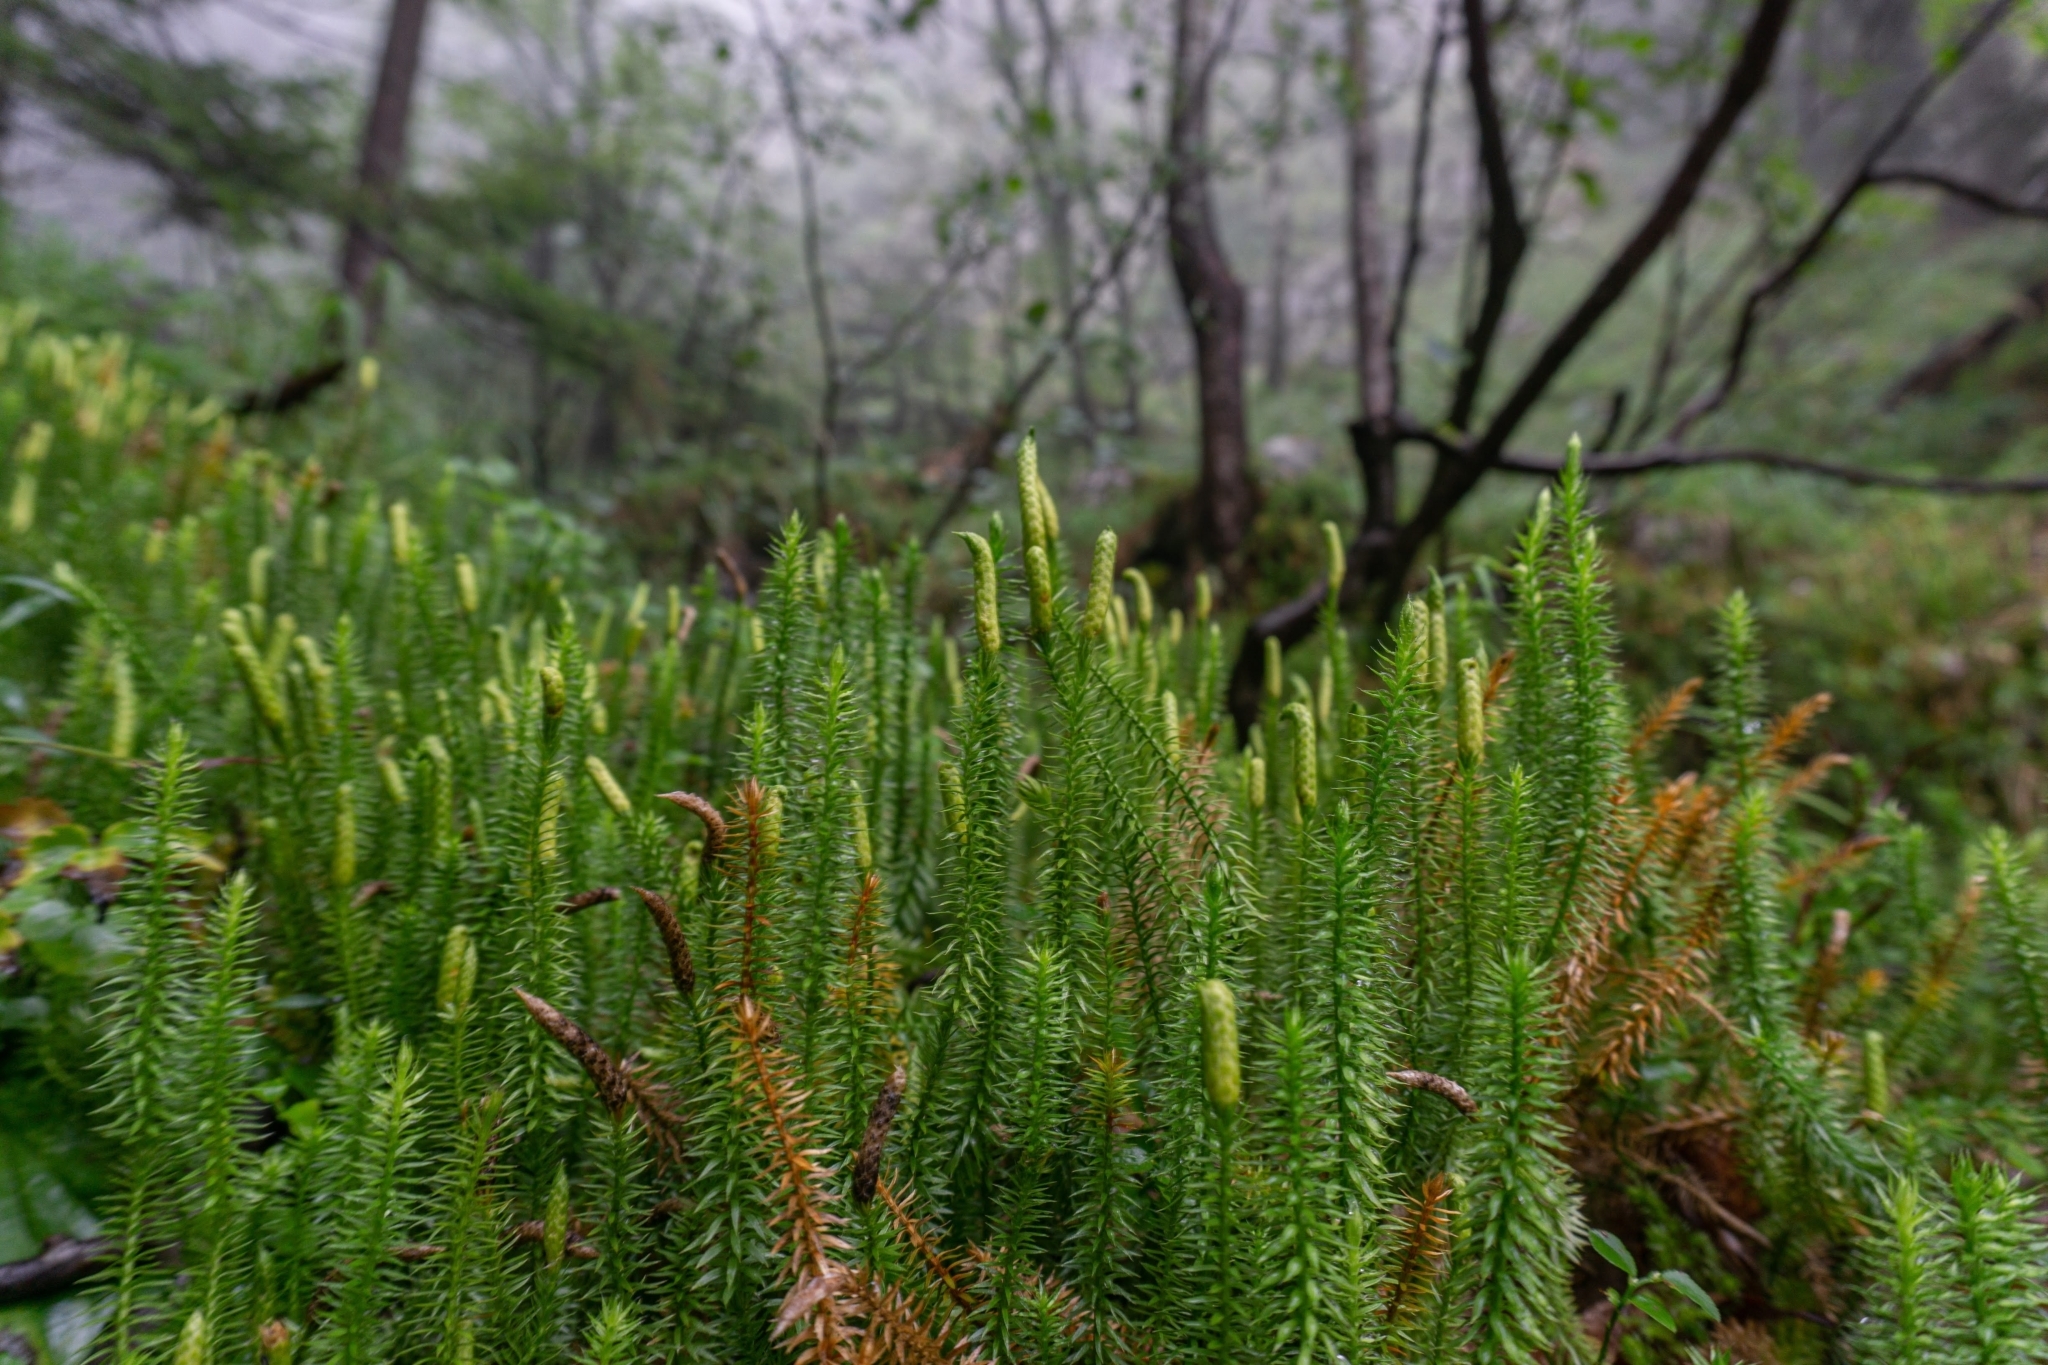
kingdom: Plantae
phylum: Tracheophyta
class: Lycopodiopsida
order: Lycopodiales
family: Lycopodiaceae
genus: Spinulum
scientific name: Spinulum annotinum
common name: Interrupted club-moss
